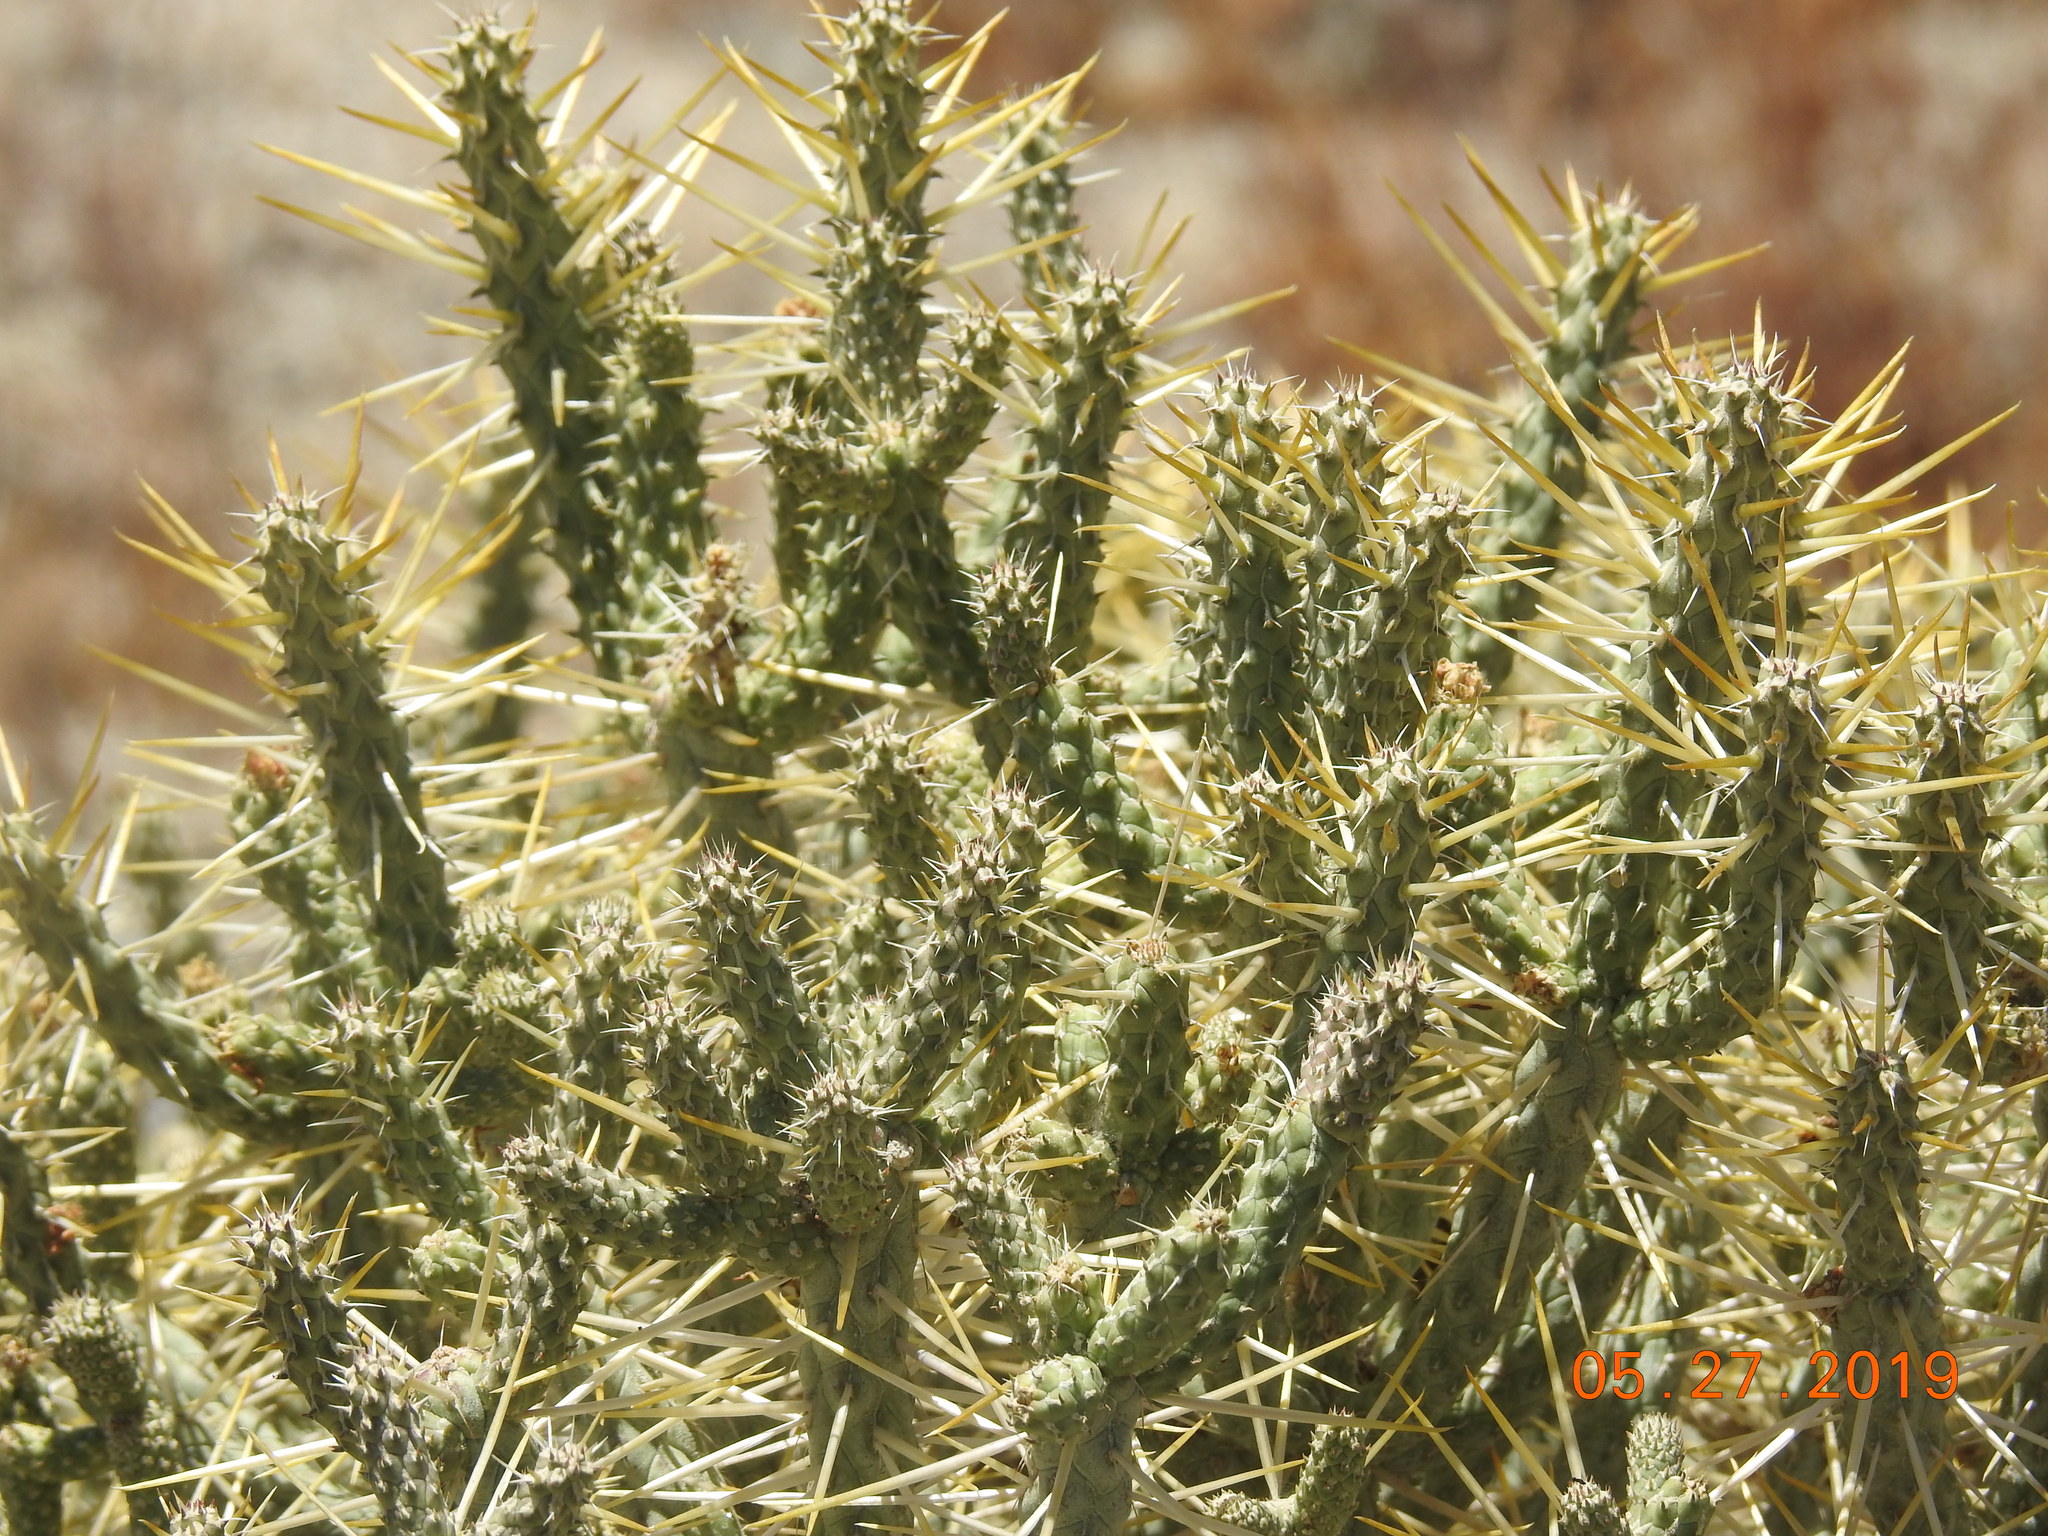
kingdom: Plantae
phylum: Tracheophyta
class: Magnoliopsida
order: Caryophyllales
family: Cactaceae
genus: Cylindropuntia
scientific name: Cylindropuntia ramosissima
